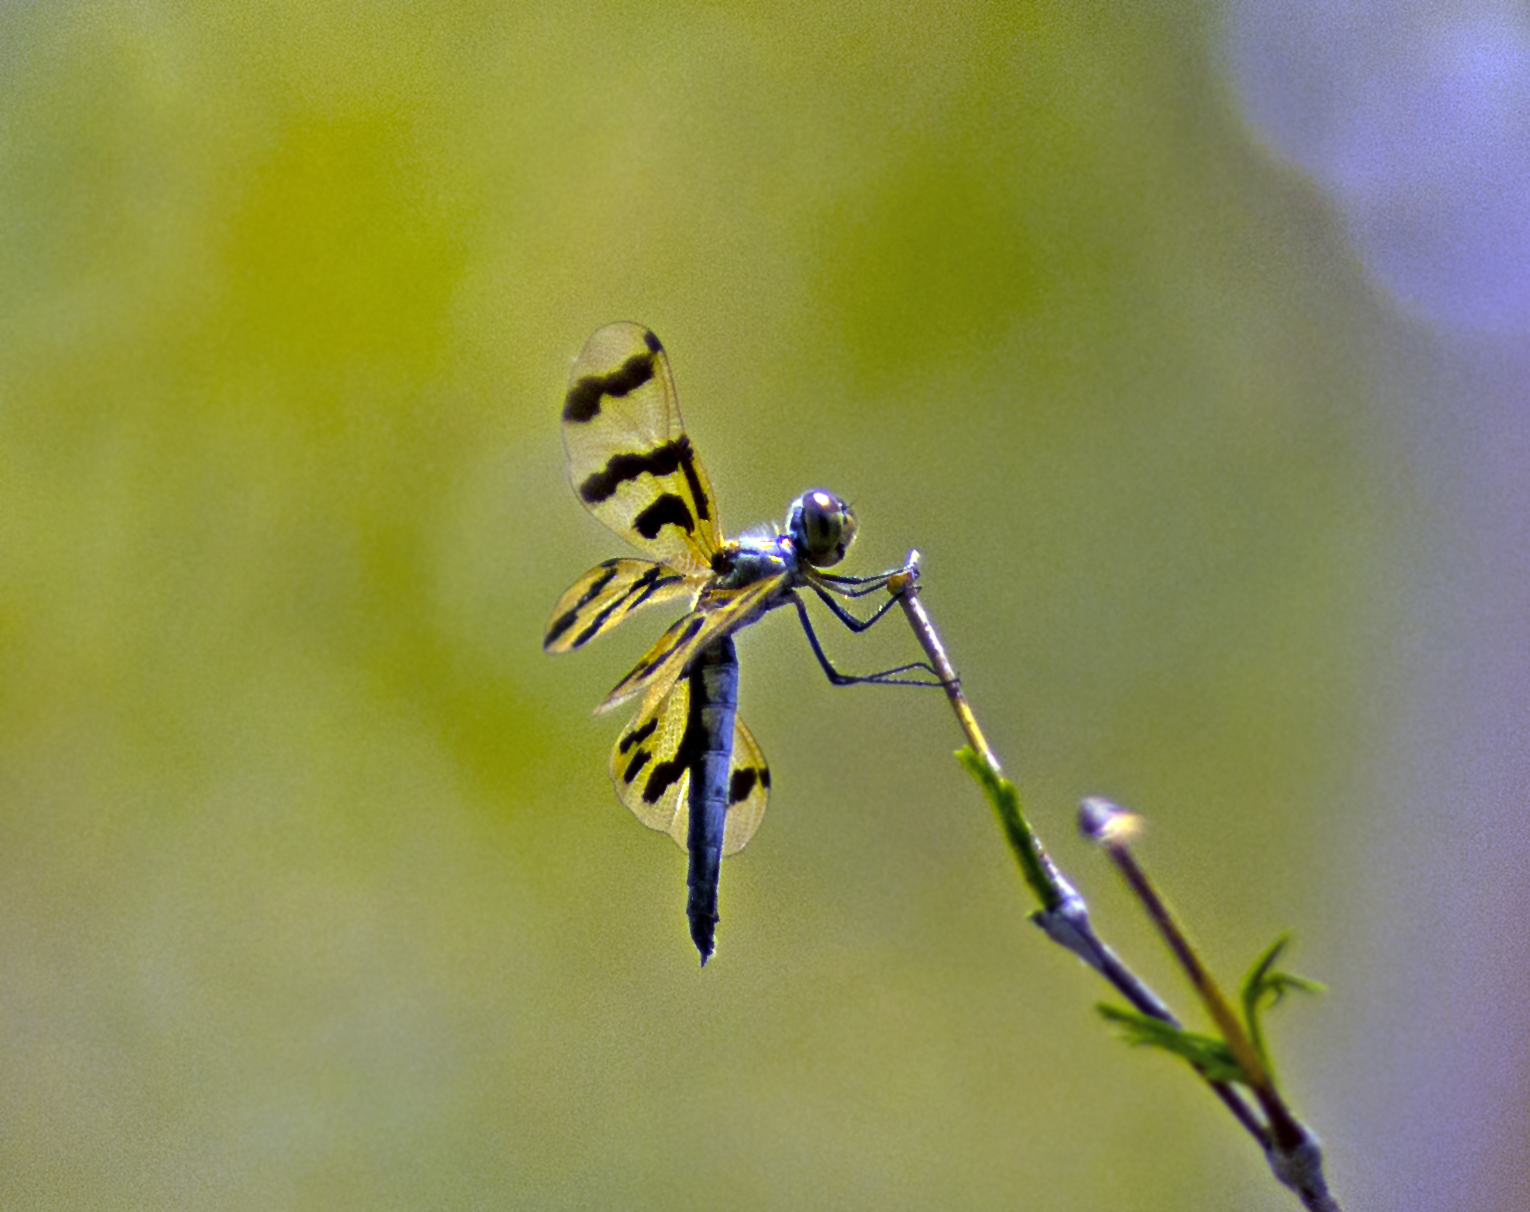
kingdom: Animalia
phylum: Arthropoda
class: Insecta
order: Odonata
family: Libellulidae
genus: Rhyothemis
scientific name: Rhyothemis graphiptera
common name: Graphic flutterer
